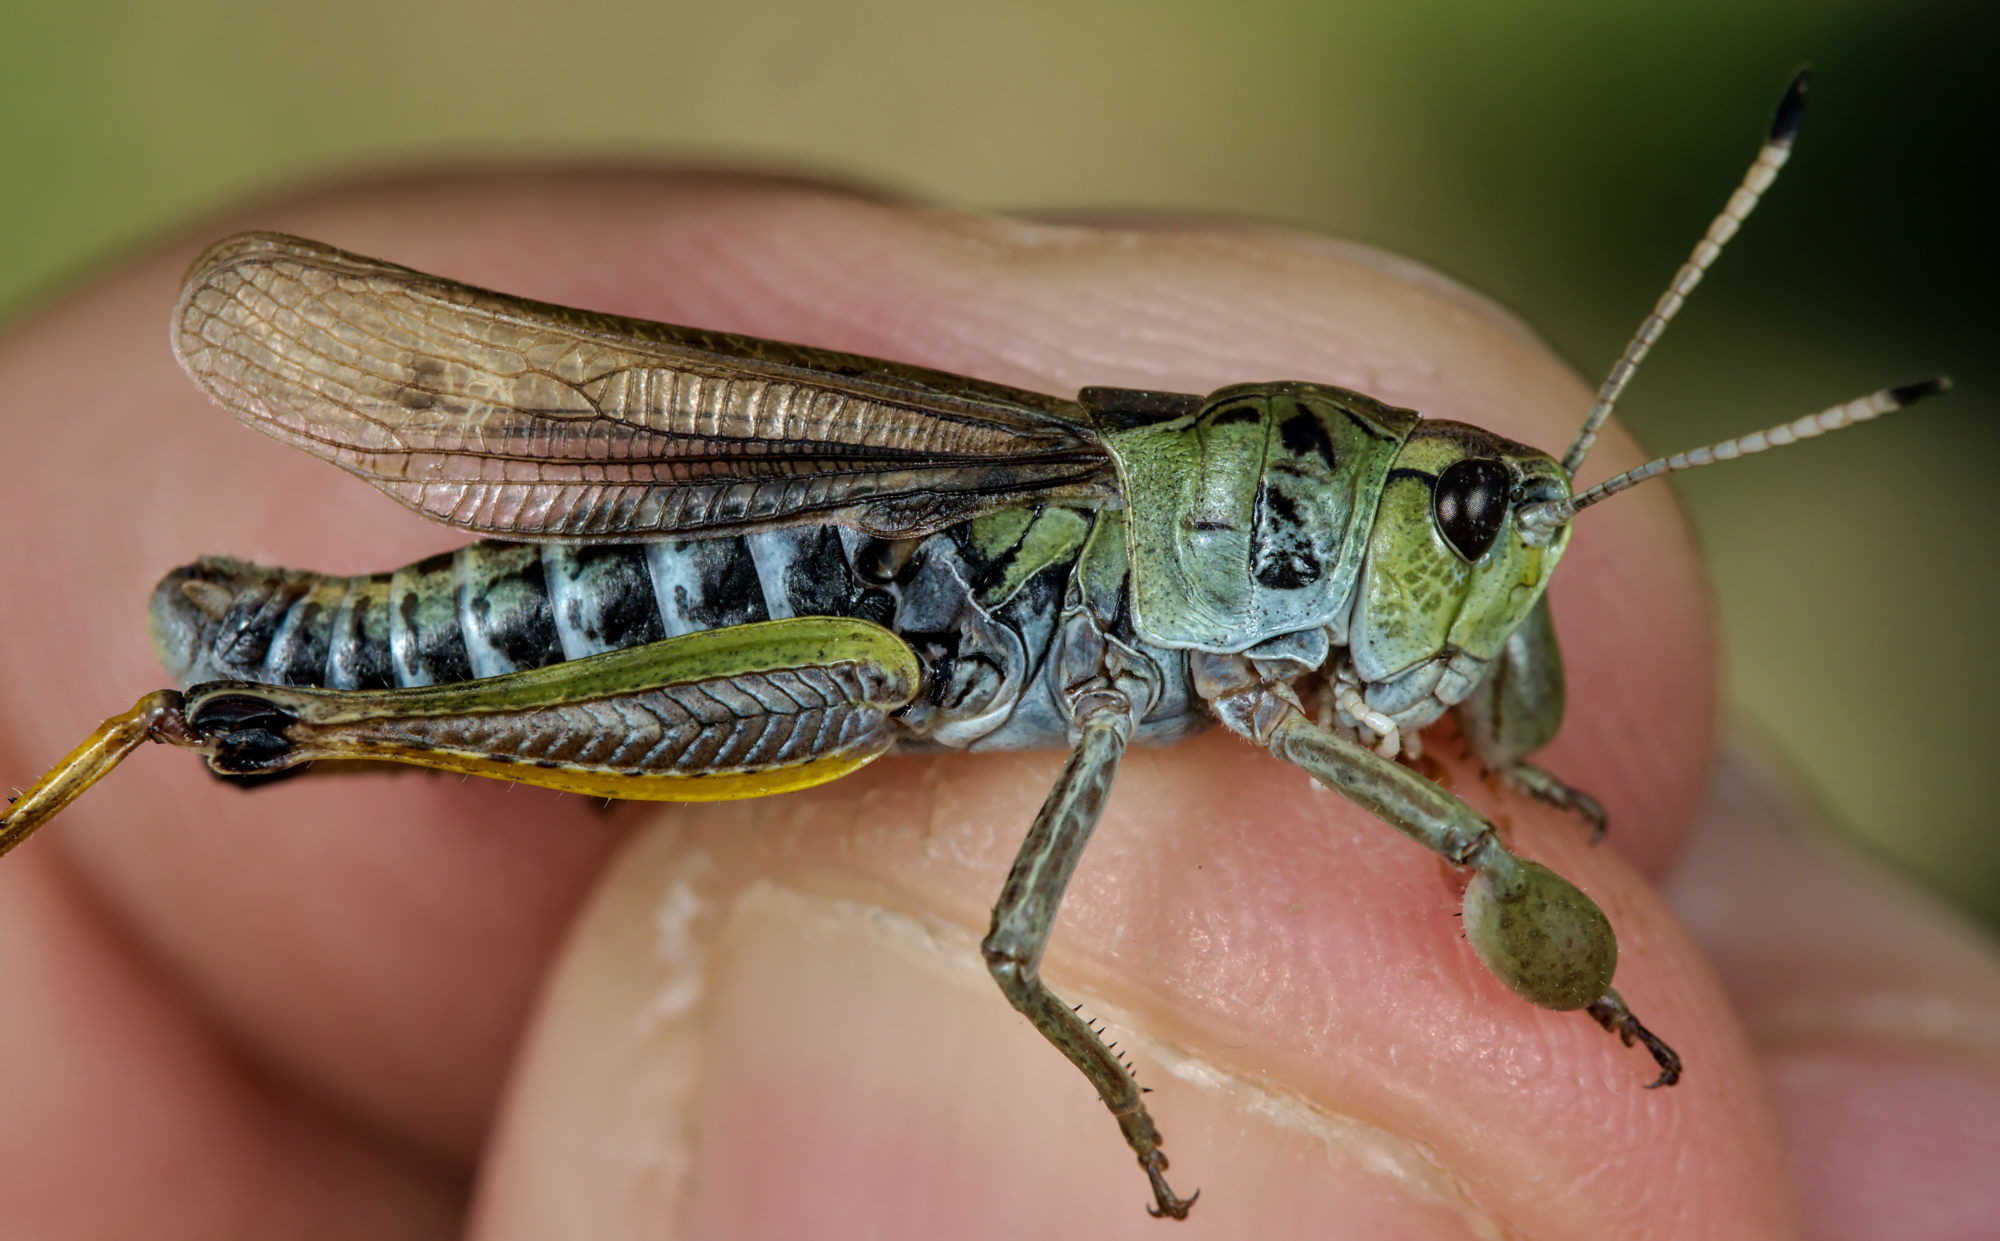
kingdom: Animalia
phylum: Arthropoda
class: Insecta
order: Orthoptera
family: Acrididae
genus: Gomphocerus
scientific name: Gomphocerus sibiricus
